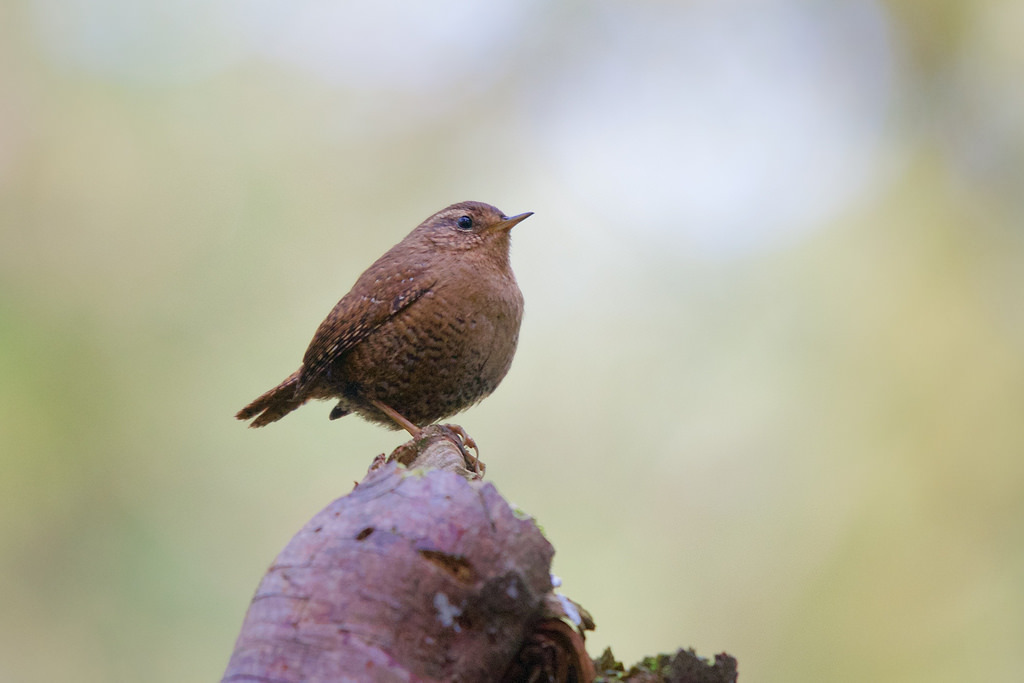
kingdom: Animalia
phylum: Chordata
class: Aves
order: Passeriformes
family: Troglodytidae
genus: Troglodytes
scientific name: Troglodytes pacificus
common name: Pacific wren
